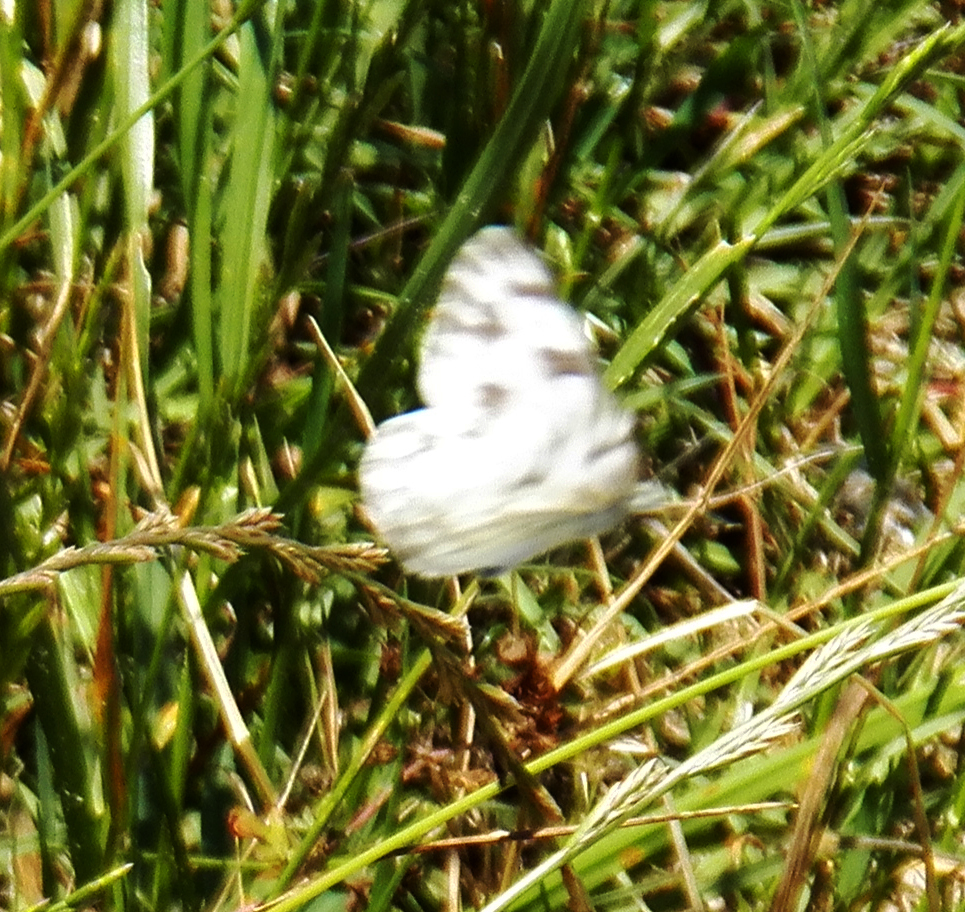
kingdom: Animalia
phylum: Arthropoda
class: Insecta
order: Lepidoptera
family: Pieridae
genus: Pontia
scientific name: Pontia protodice
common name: Checkered white
